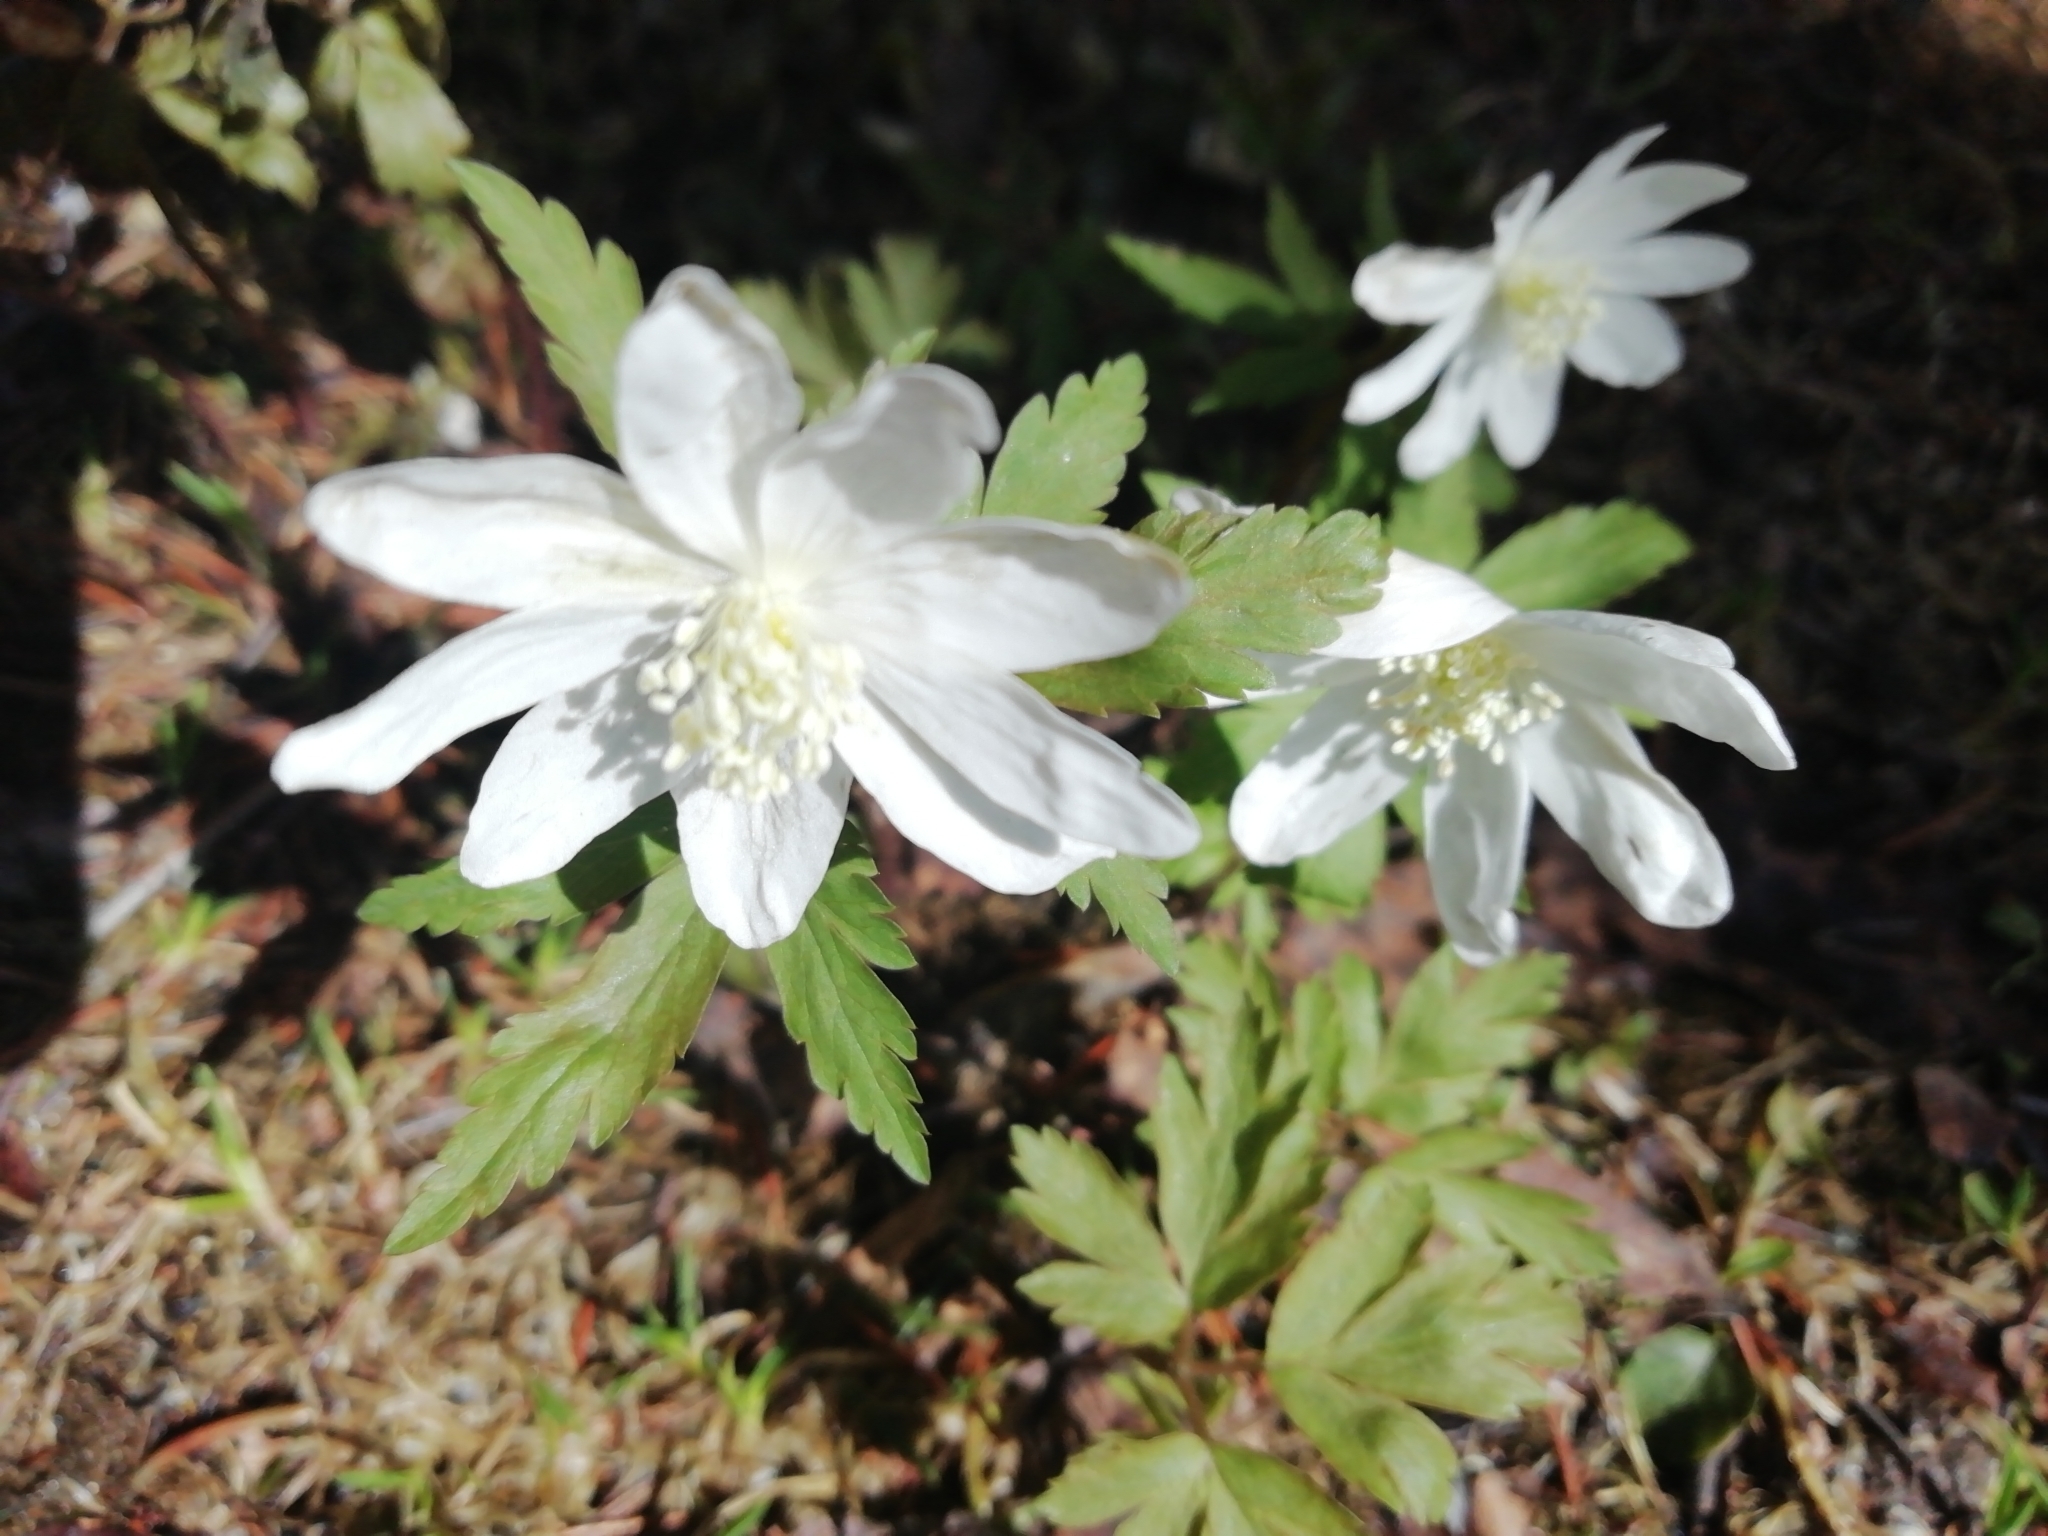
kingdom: Plantae
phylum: Tracheophyta
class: Magnoliopsida
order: Ranunculales
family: Ranunculaceae
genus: Anemone
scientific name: Anemone altaica
